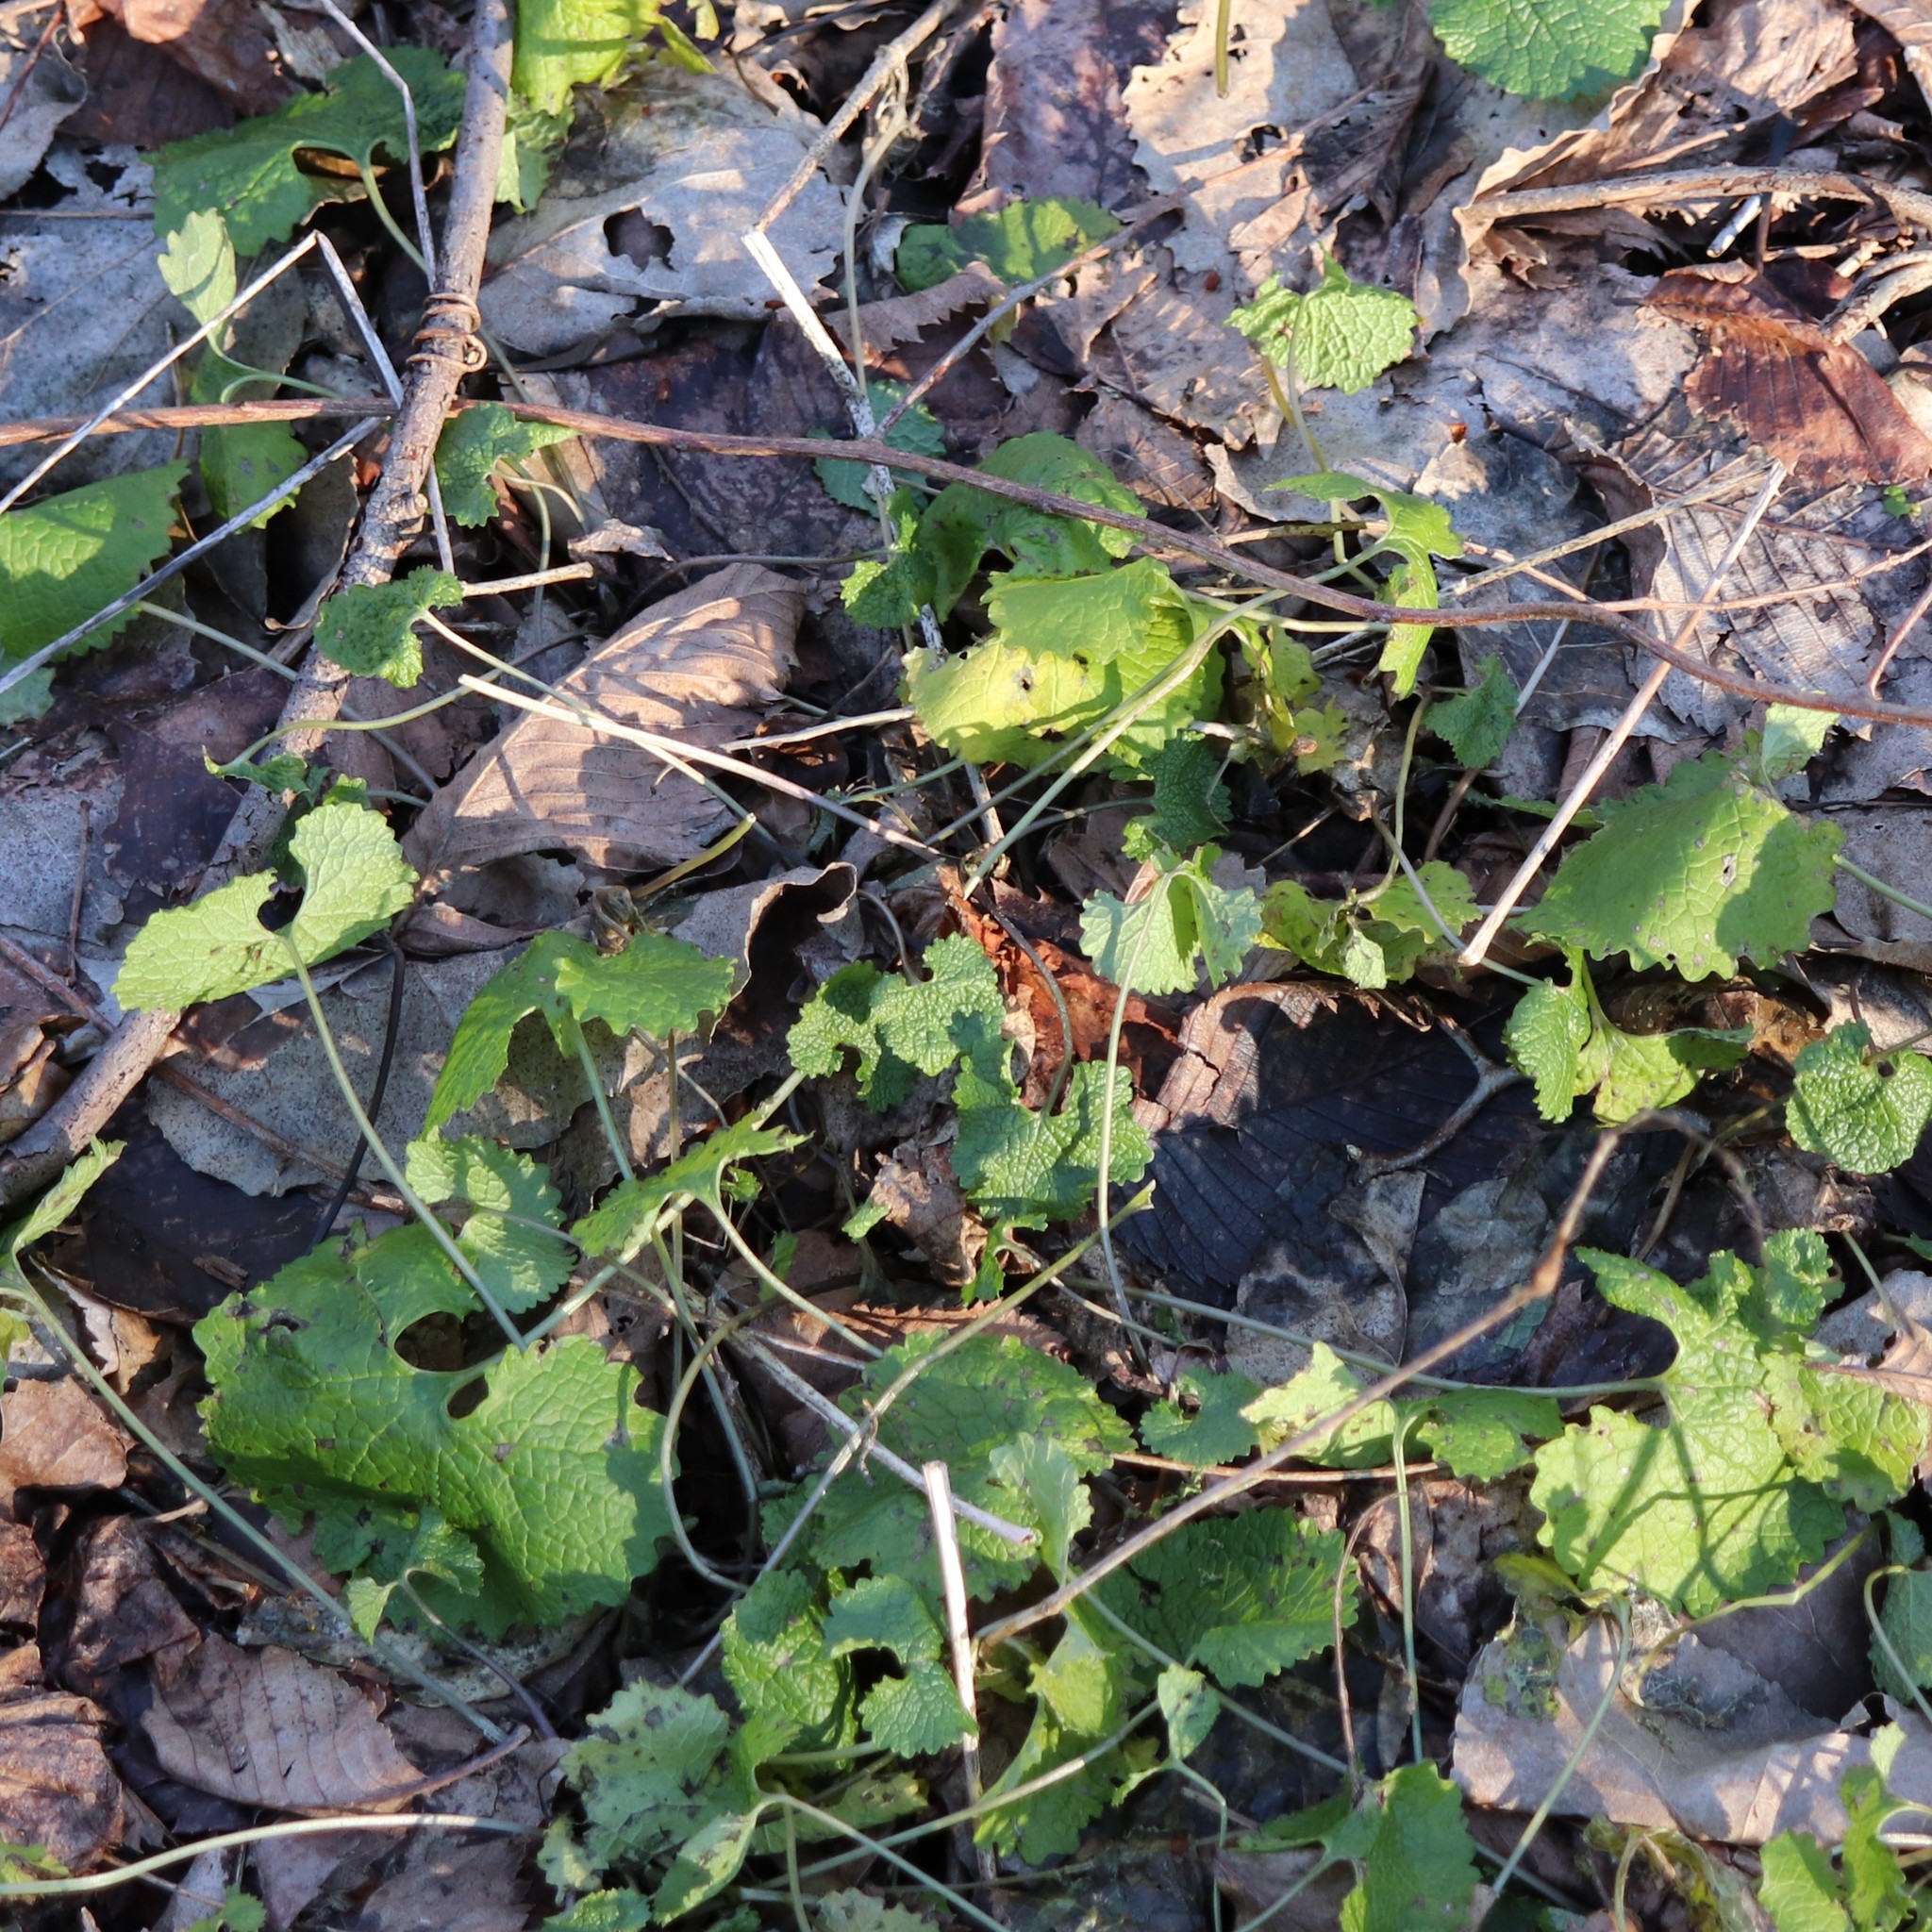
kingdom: Plantae
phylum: Tracheophyta
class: Magnoliopsida
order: Brassicales
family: Brassicaceae
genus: Alliaria
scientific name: Alliaria petiolata
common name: Garlic mustard
